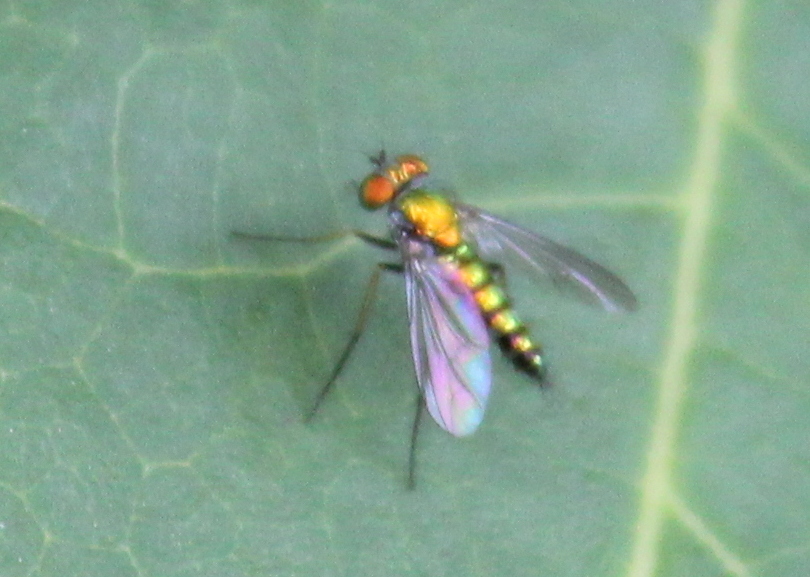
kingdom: Animalia
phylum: Arthropoda
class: Insecta
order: Diptera
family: Dolichopodidae
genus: Condylostylus
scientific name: Condylostylus caudatus
